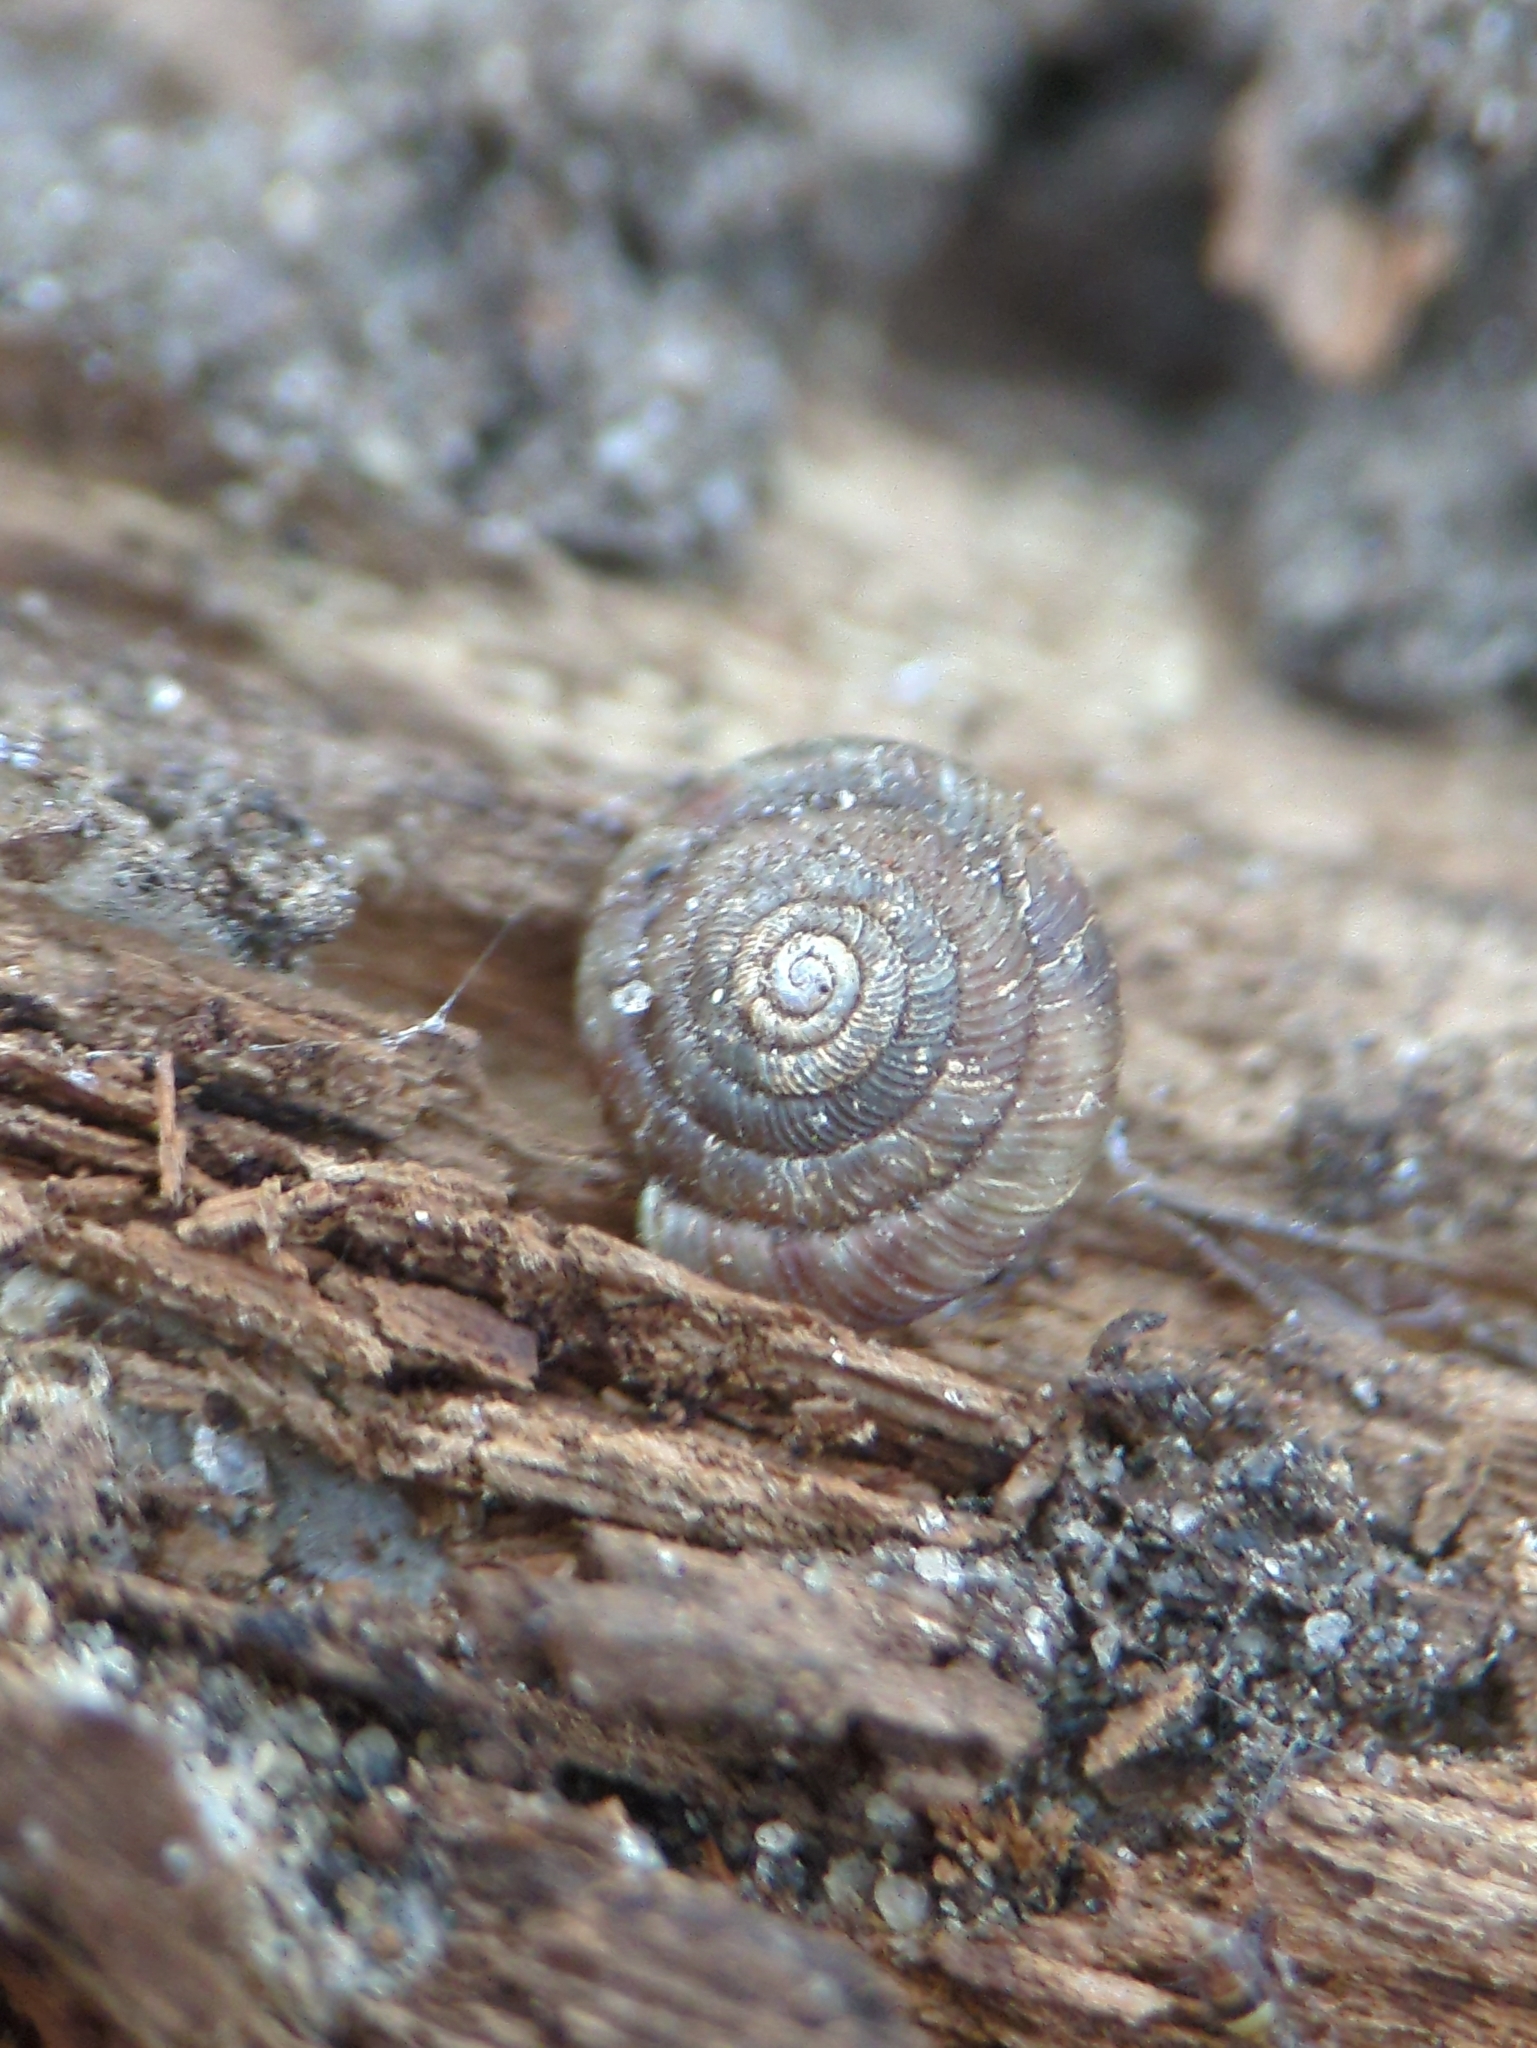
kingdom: Animalia
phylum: Mollusca
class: Gastropoda
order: Stylommatophora
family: Discidae
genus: Discus
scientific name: Discus rotundatus
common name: Rounded snail
